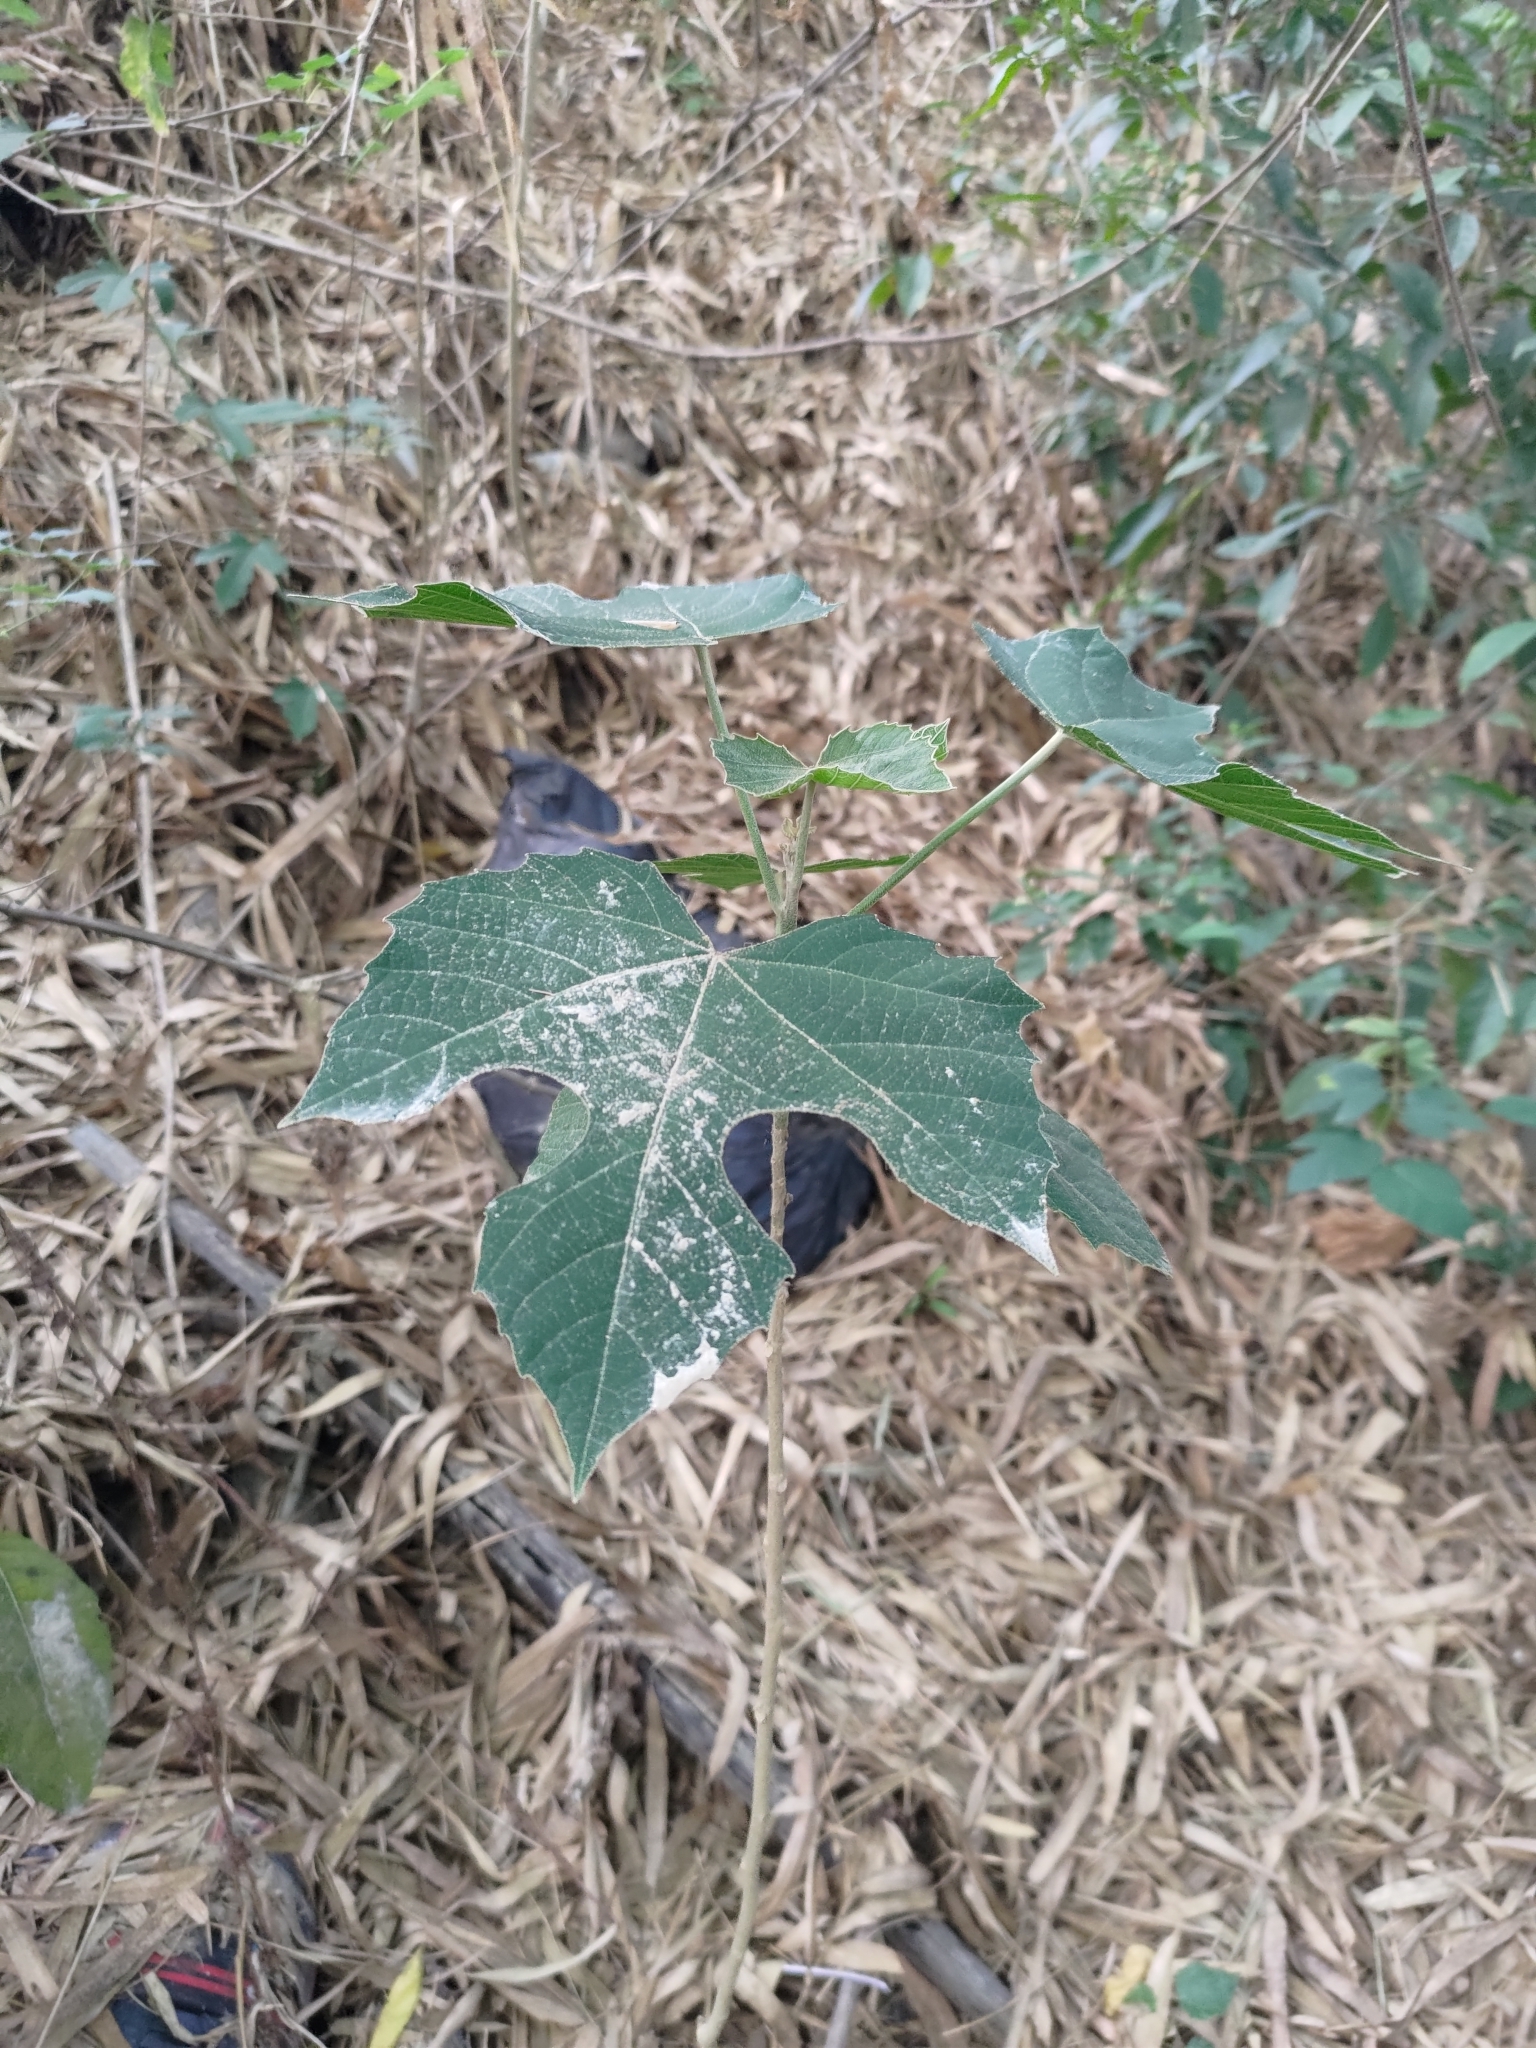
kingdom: Plantae
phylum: Tracheophyta
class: Magnoliopsida
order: Malpighiales
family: Euphorbiaceae
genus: Melanolepis
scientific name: Melanolepis multiglandulosa
